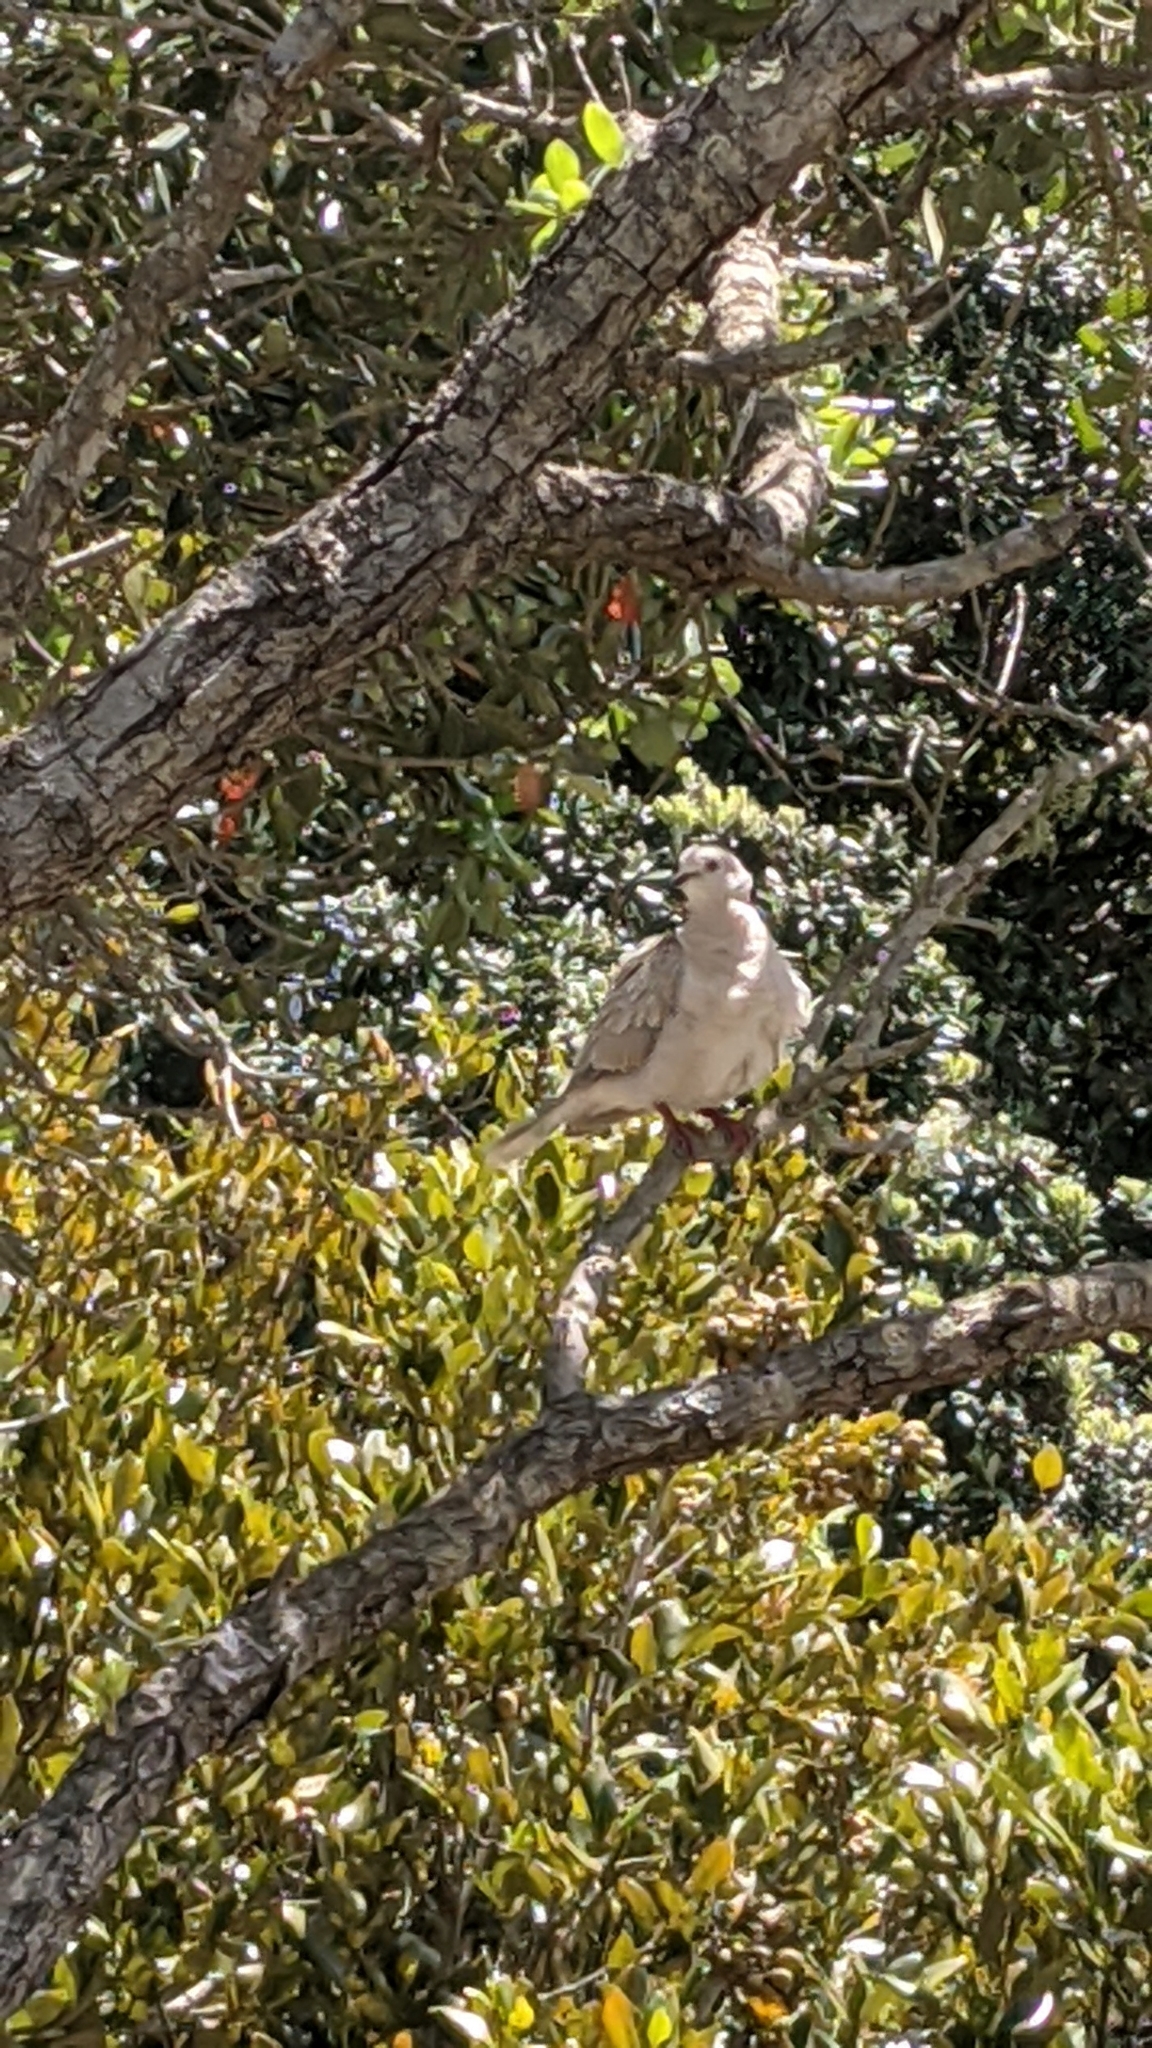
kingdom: Animalia
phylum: Chordata
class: Aves
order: Columbiformes
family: Columbidae
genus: Streptopelia
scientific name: Streptopelia roseogrisea
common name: African collared dove
